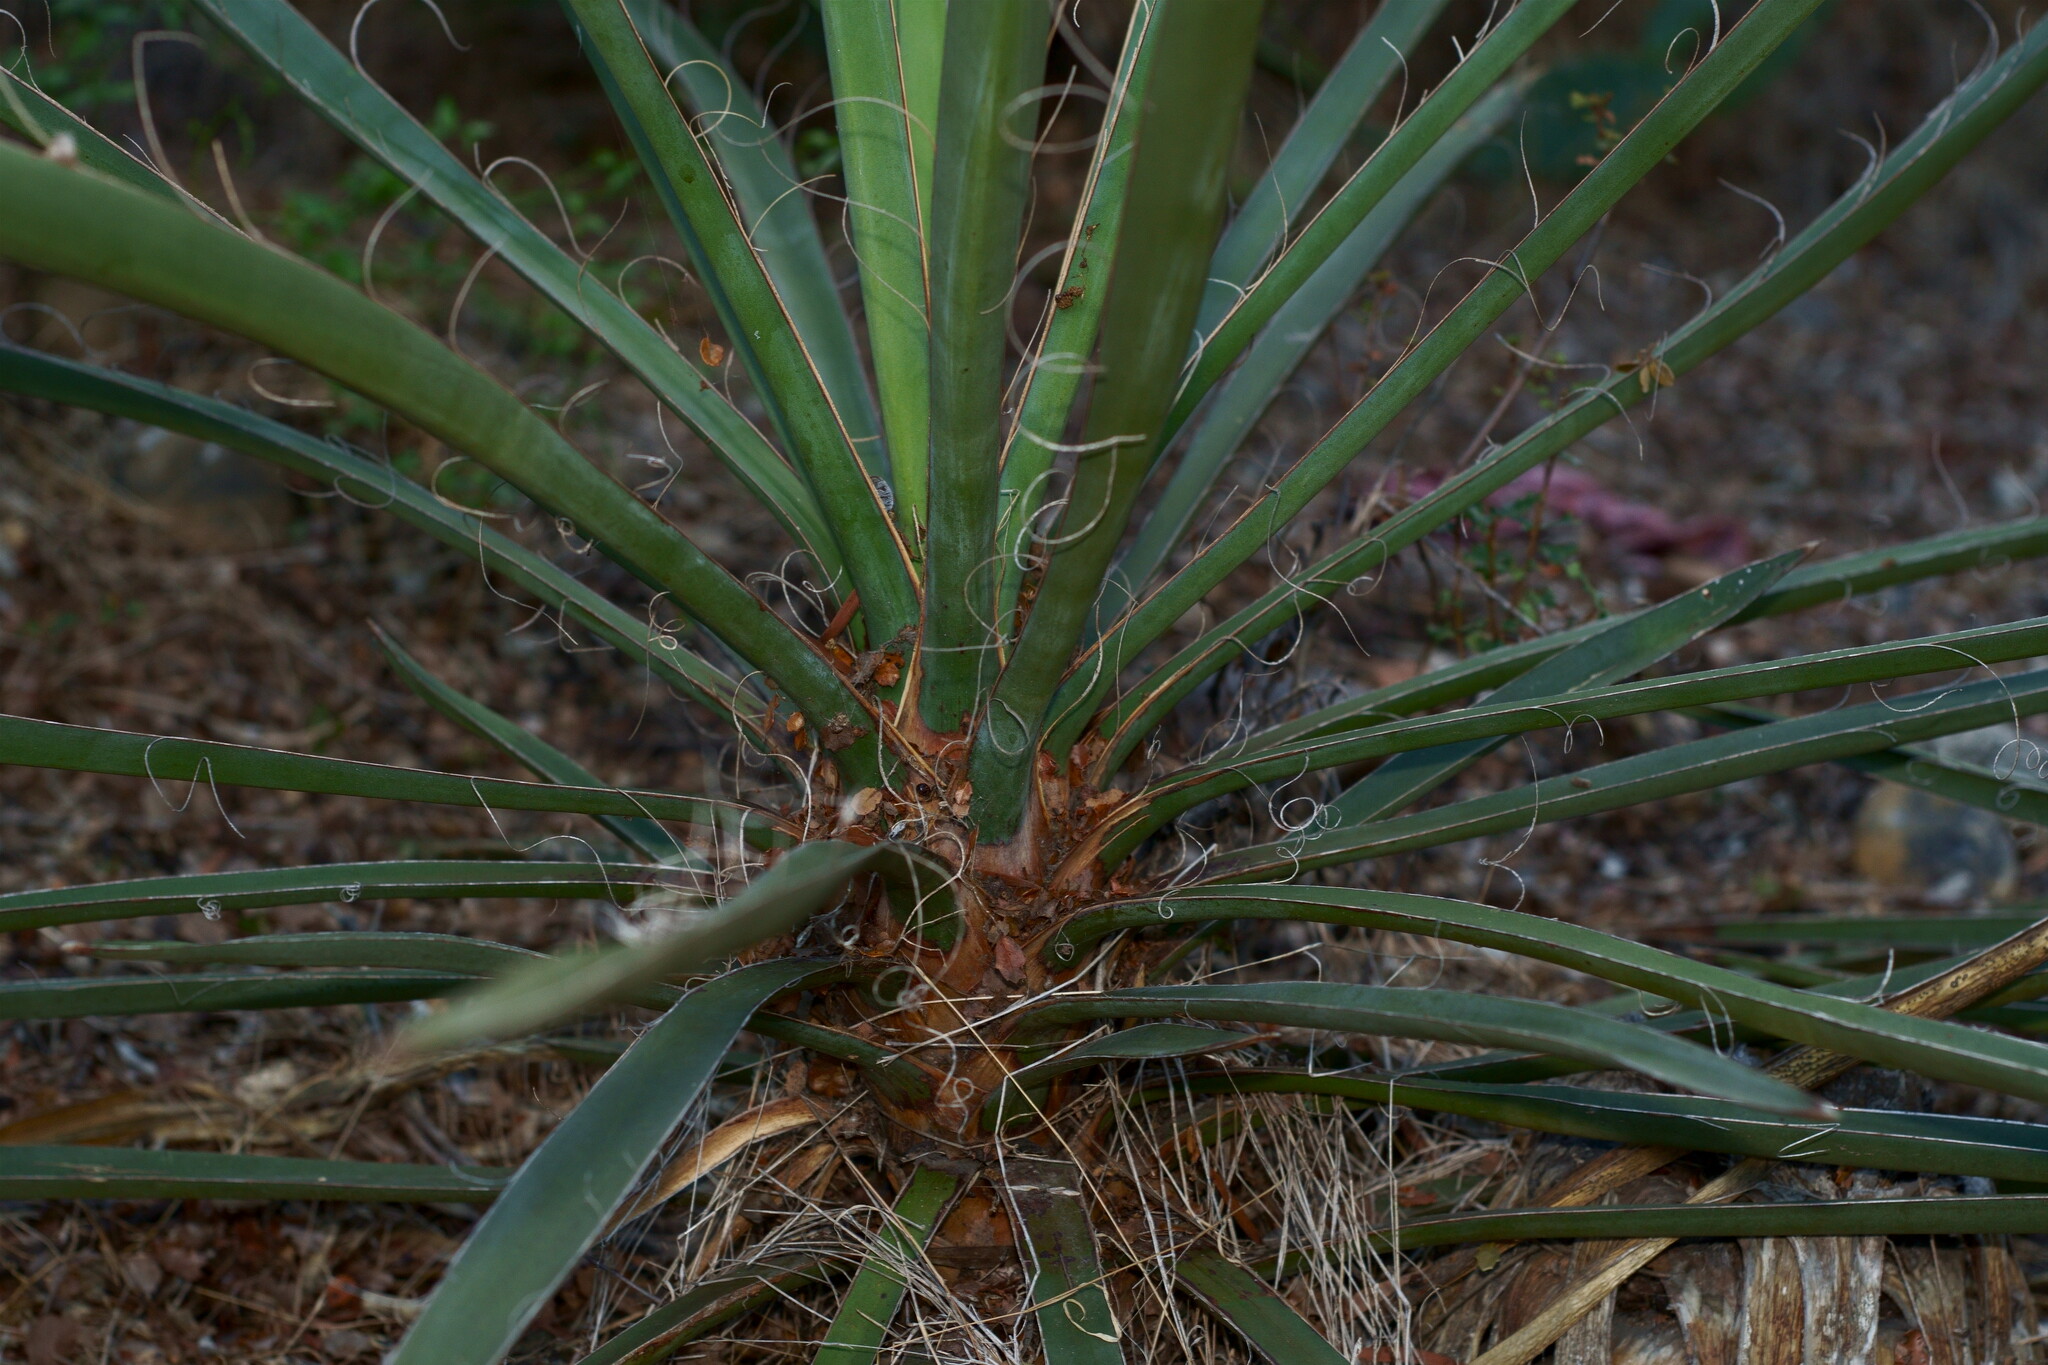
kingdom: Plantae
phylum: Tracheophyta
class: Liliopsida
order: Asparagales
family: Asparagaceae
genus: Yucca
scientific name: Yucca schidigera
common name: Mojave yucca
